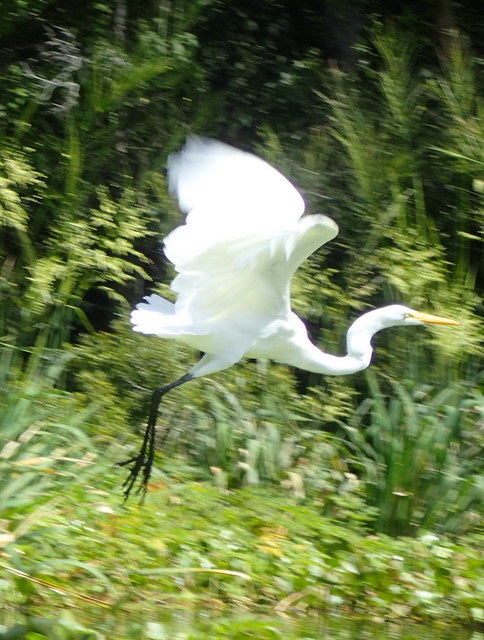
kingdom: Animalia
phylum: Chordata
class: Aves
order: Pelecaniformes
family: Ardeidae
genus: Ardea
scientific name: Ardea alba
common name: Great egret
